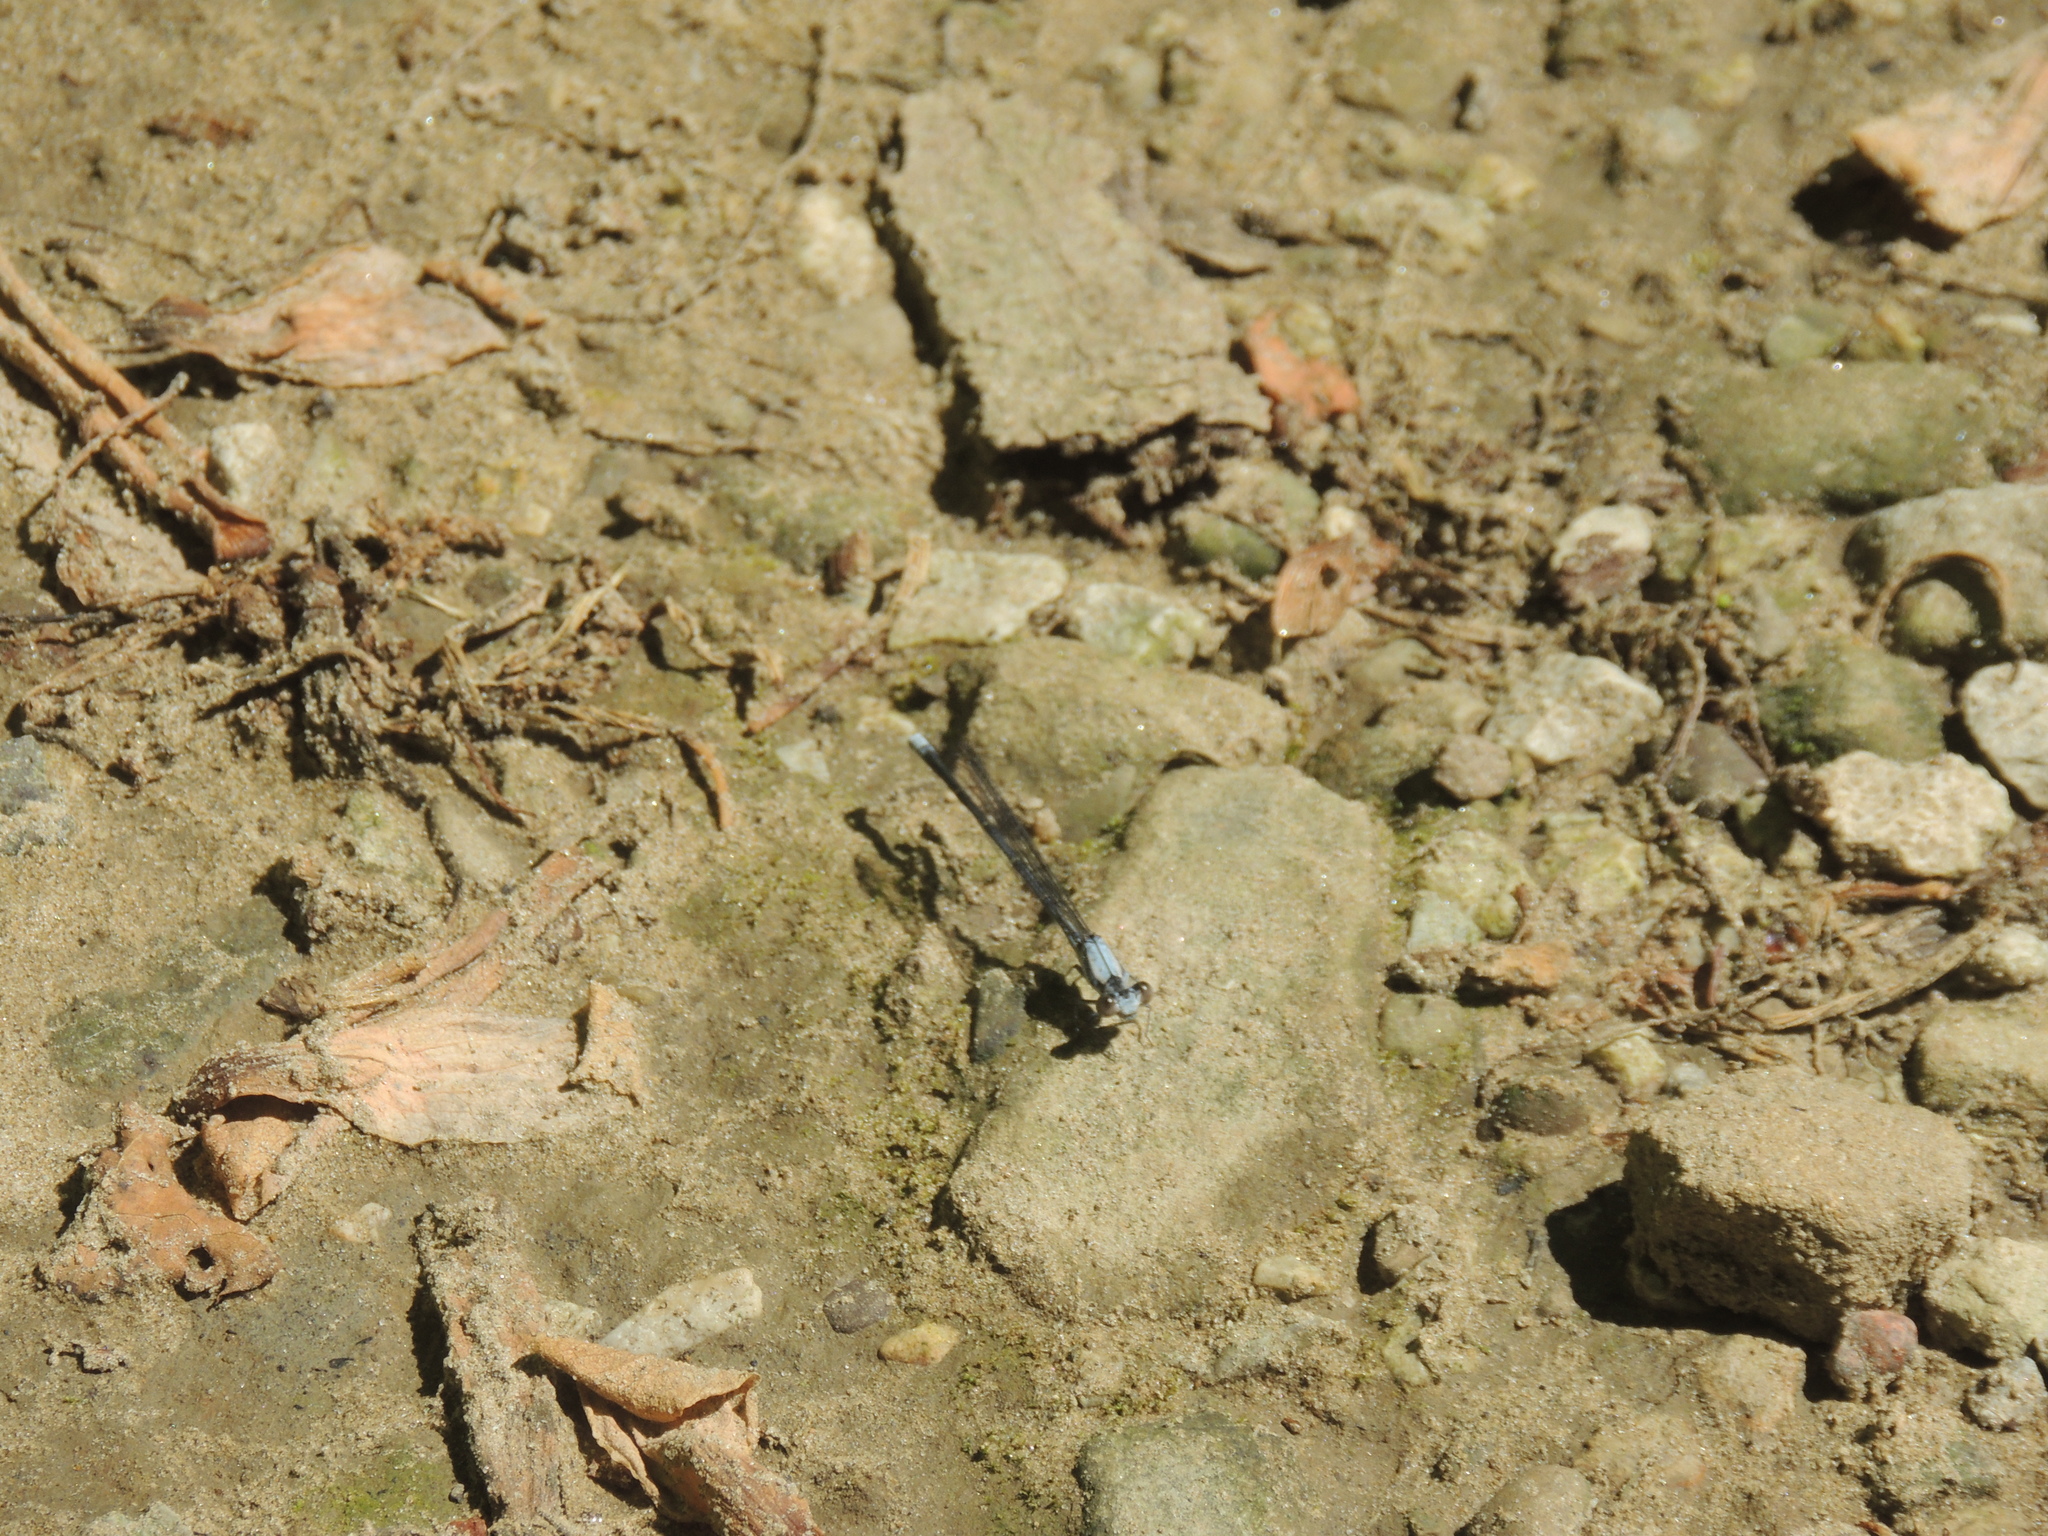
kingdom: Animalia
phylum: Arthropoda
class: Insecta
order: Odonata
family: Coenagrionidae
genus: Argia
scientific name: Argia moesta
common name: Powdered dancer
